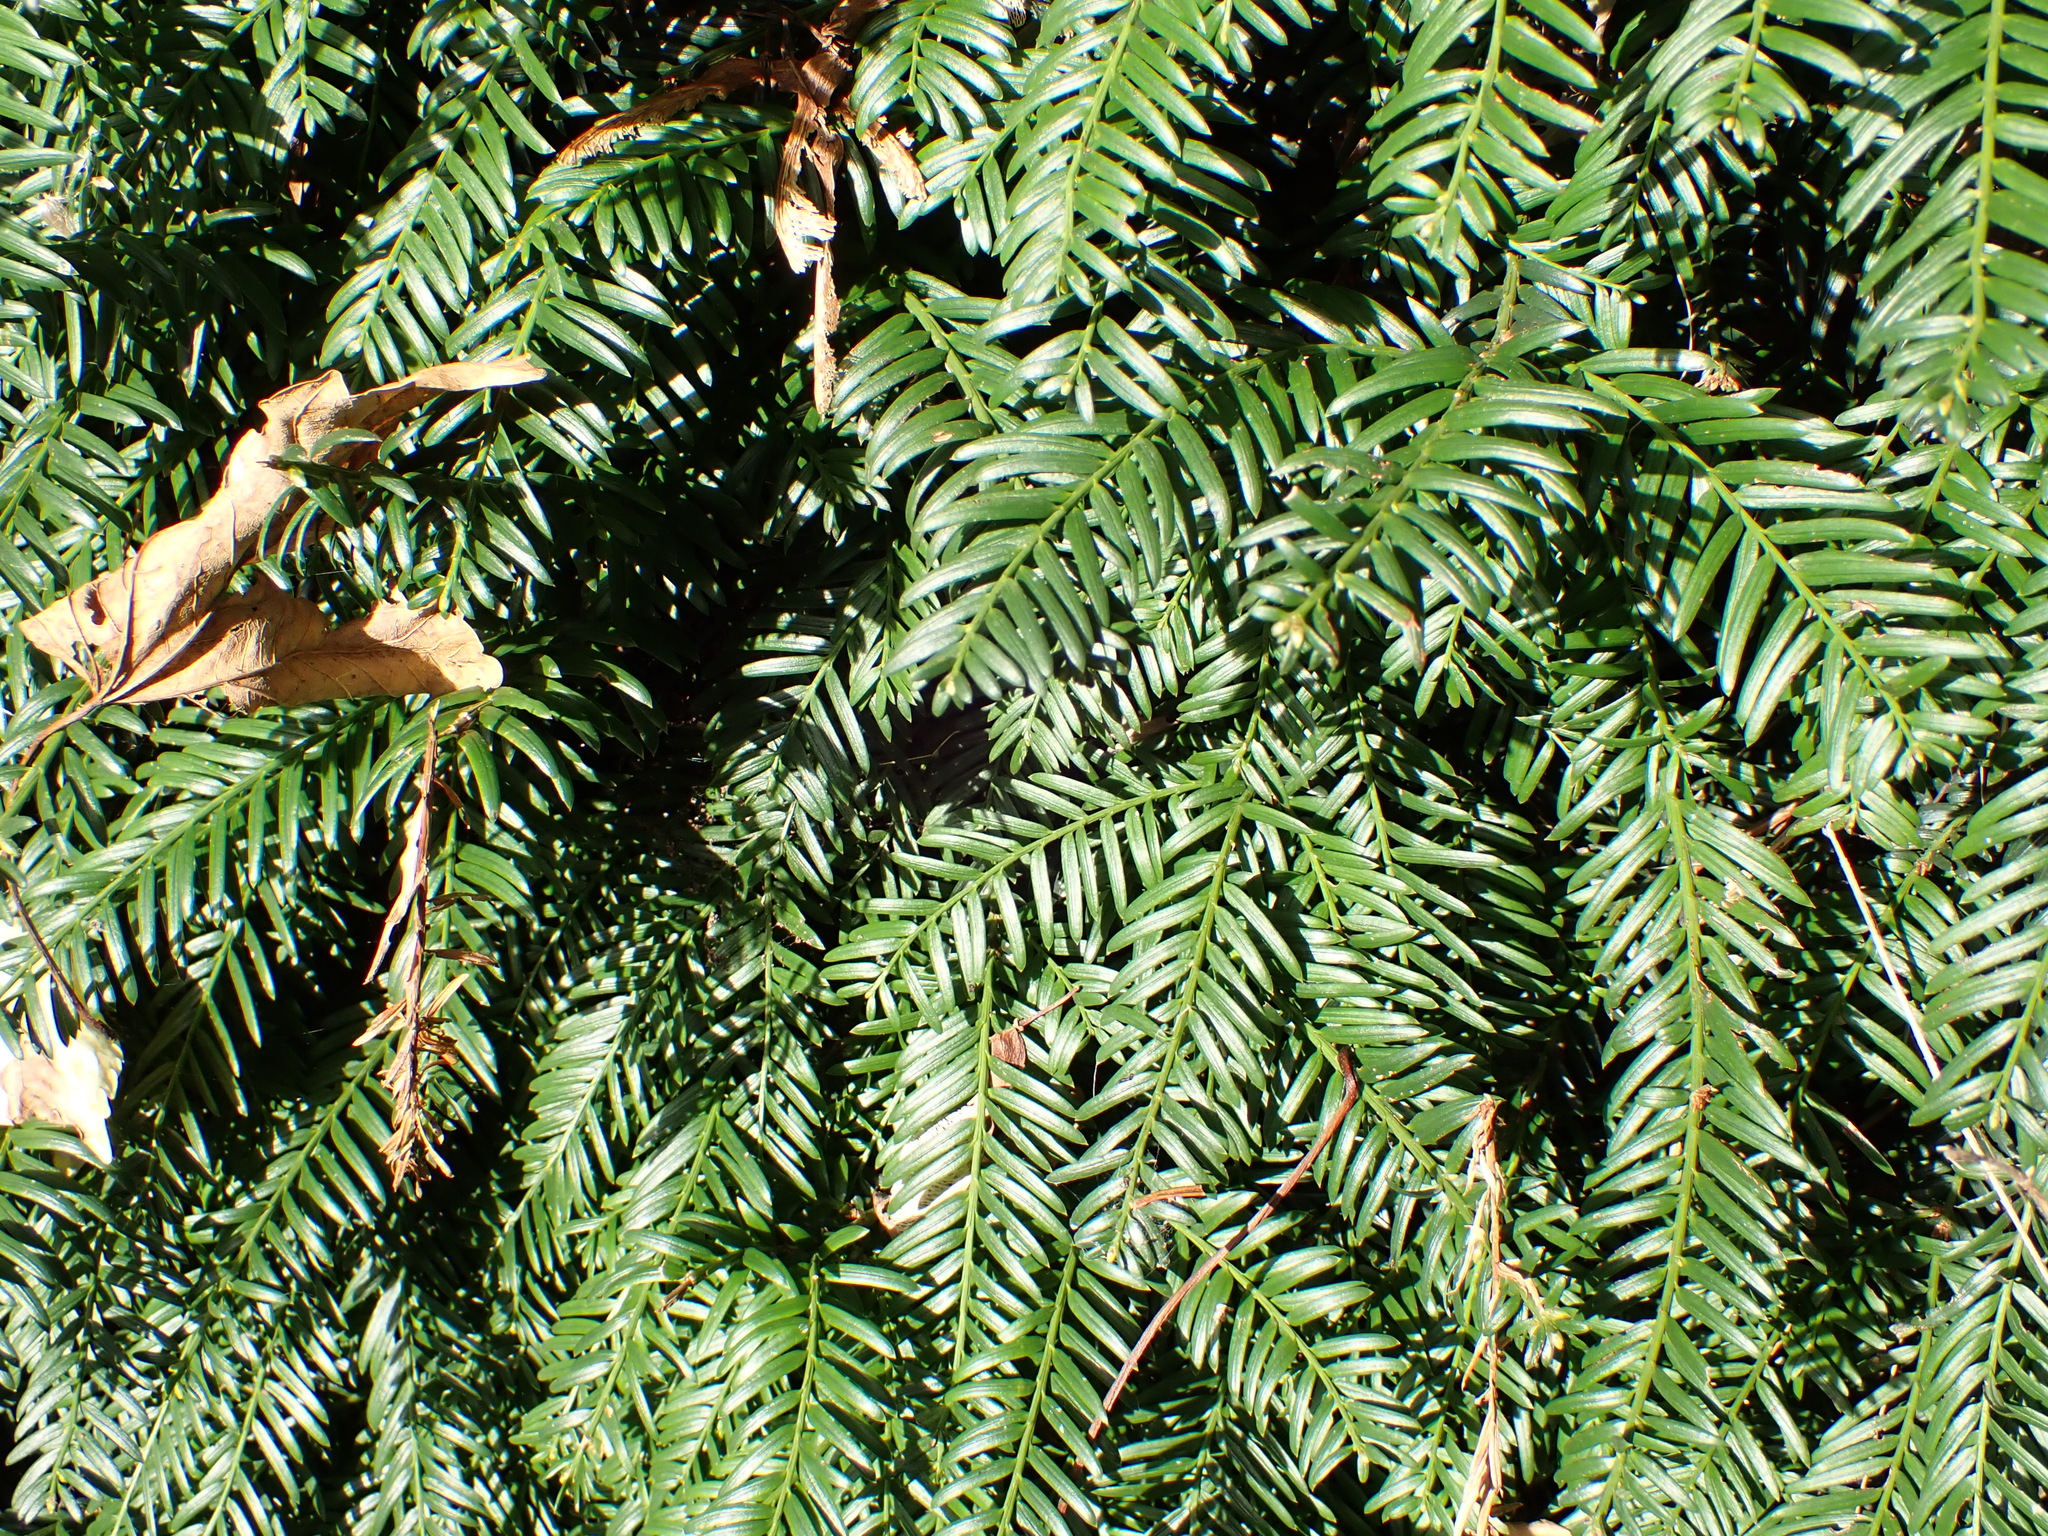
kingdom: Plantae
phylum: Tracheophyta
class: Pinopsida
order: Pinales
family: Taxaceae
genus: Taxus
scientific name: Taxus baccata
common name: Yew
